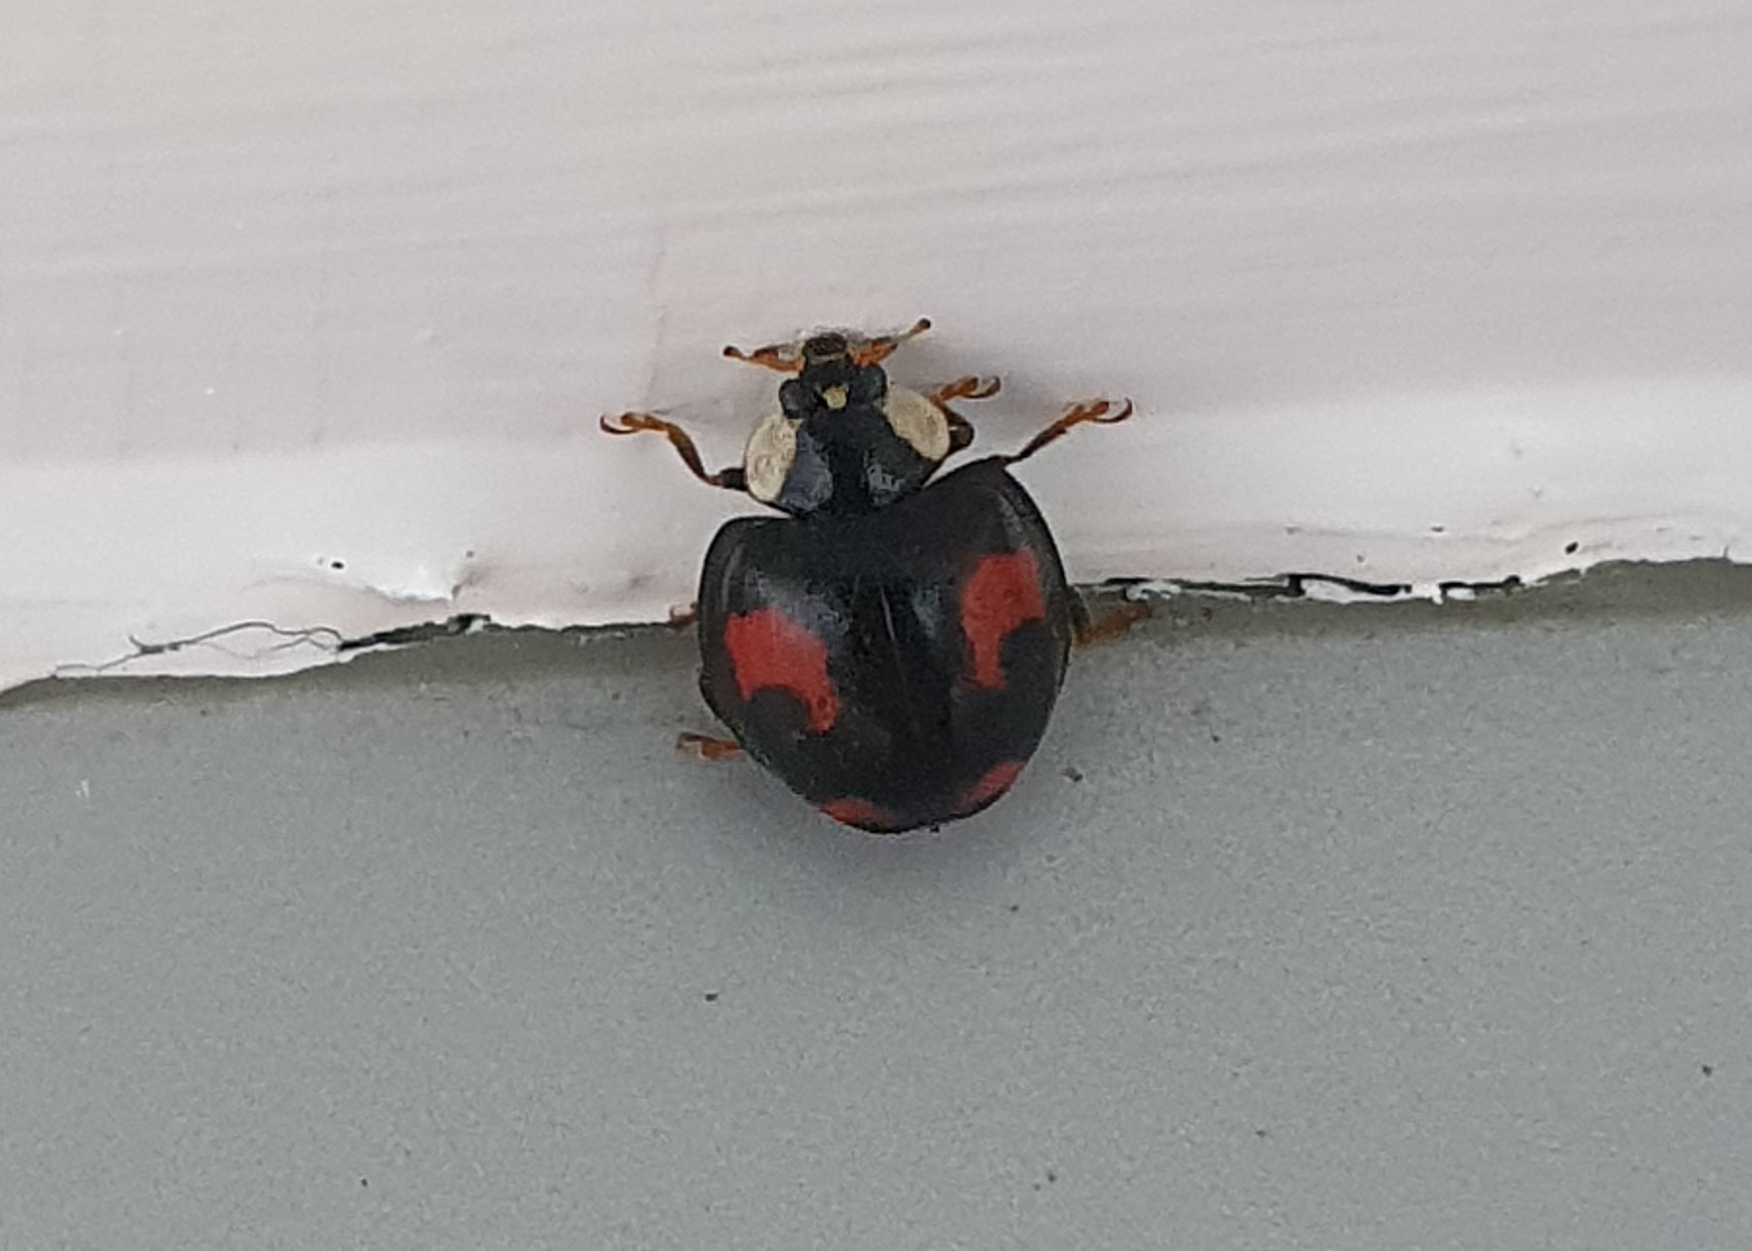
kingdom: Animalia
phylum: Arthropoda
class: Insecta
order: Coleoptera
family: Coccinellidae
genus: Harmonia
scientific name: Harmonia axyridis
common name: Harlequin ladybird
